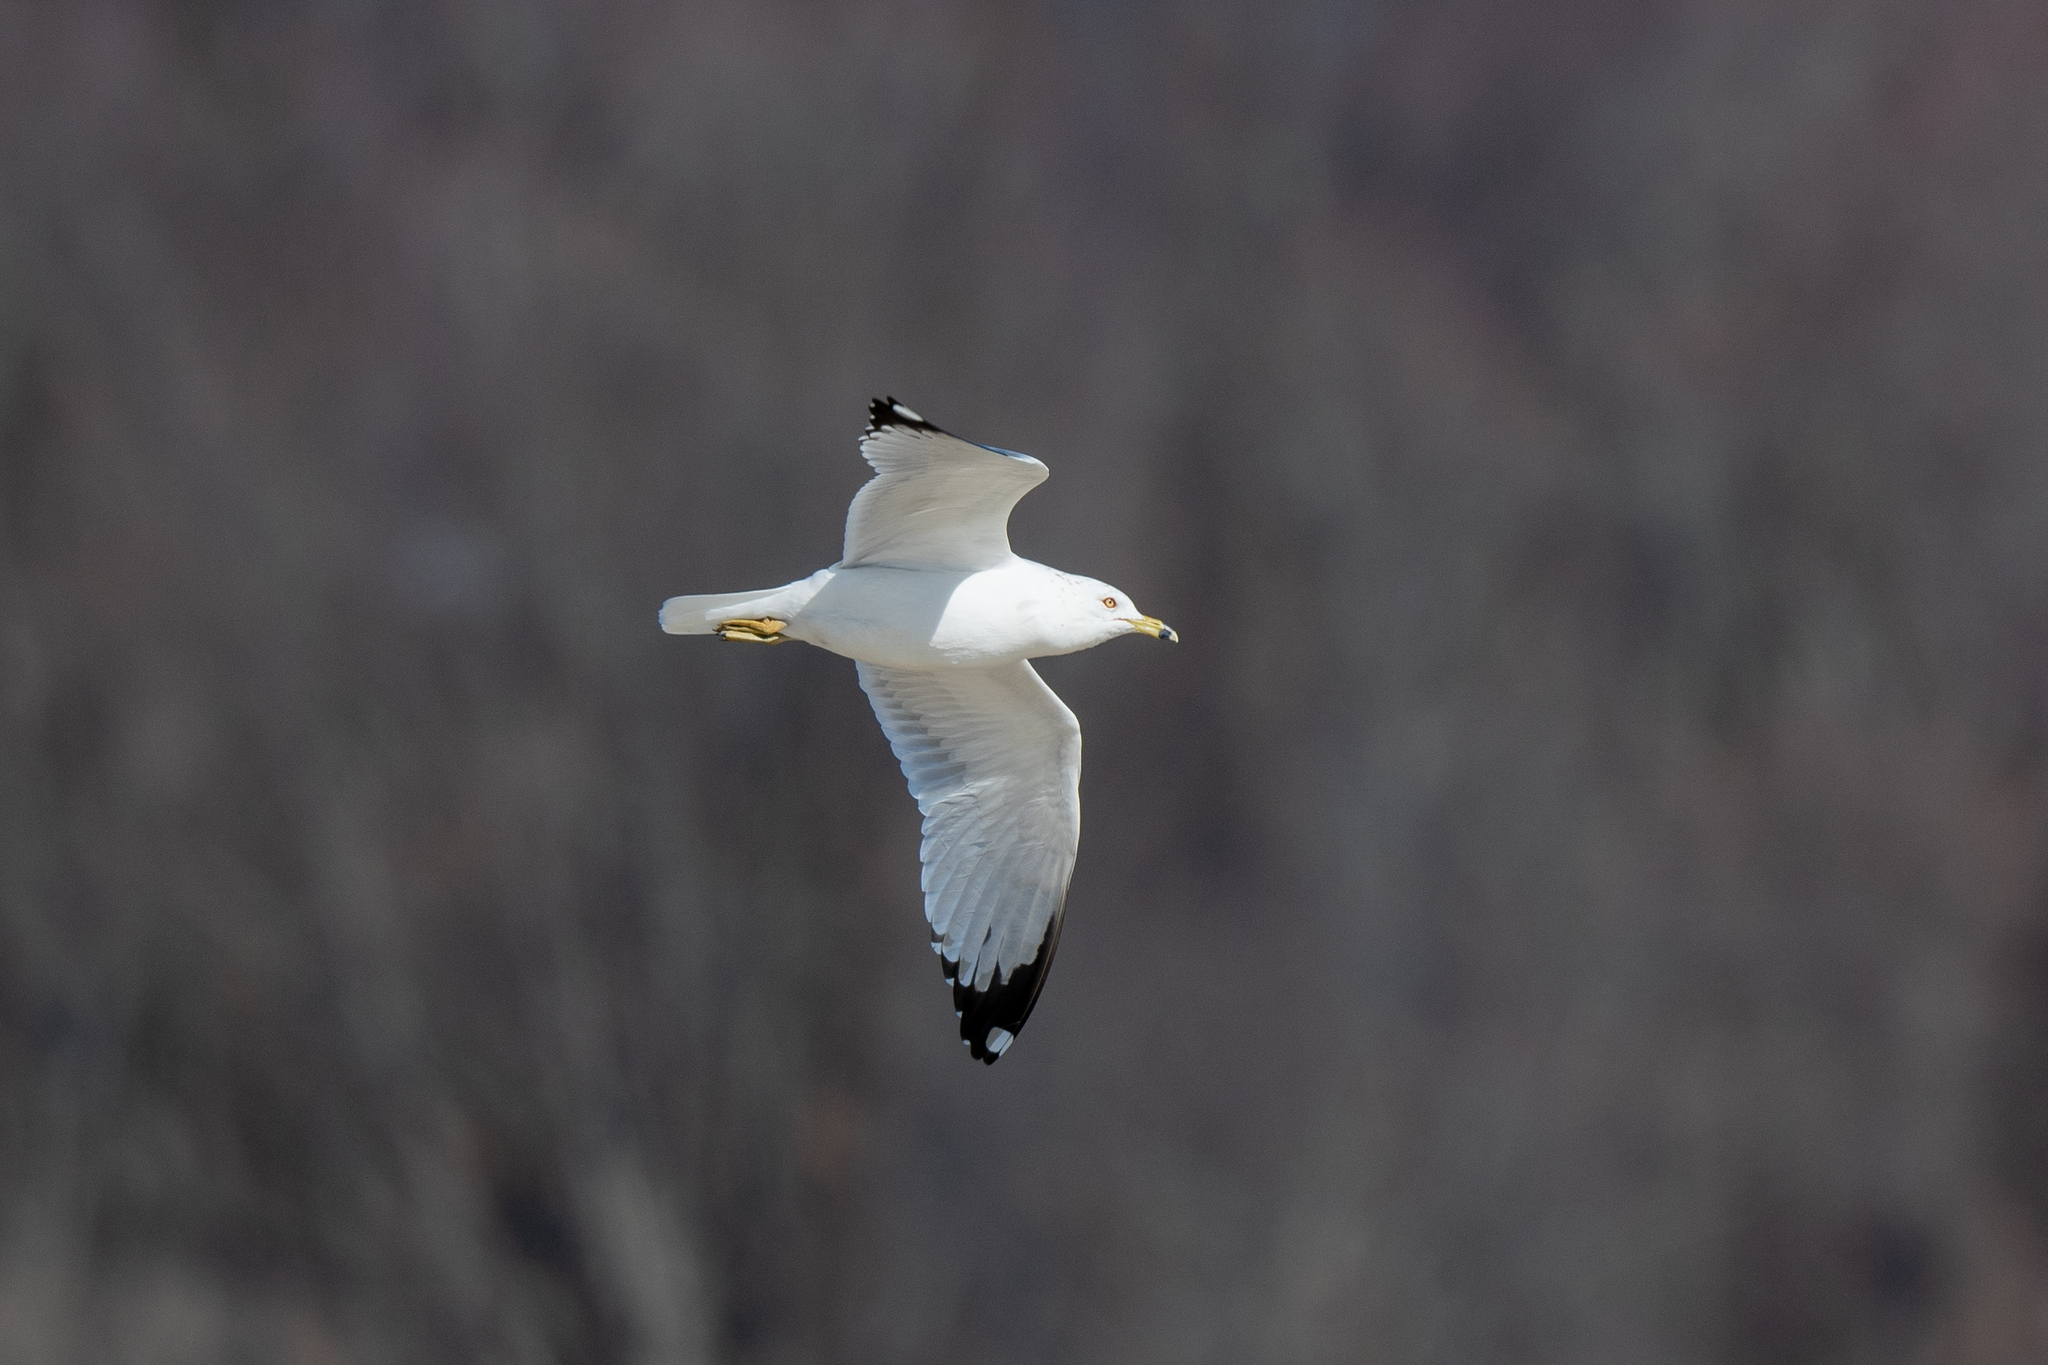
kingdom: Animalia
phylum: Chordata
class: Aves
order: Charadriiformes
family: Laridae
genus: Larus
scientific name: Larus delawarensis
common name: Ring-billed gull
